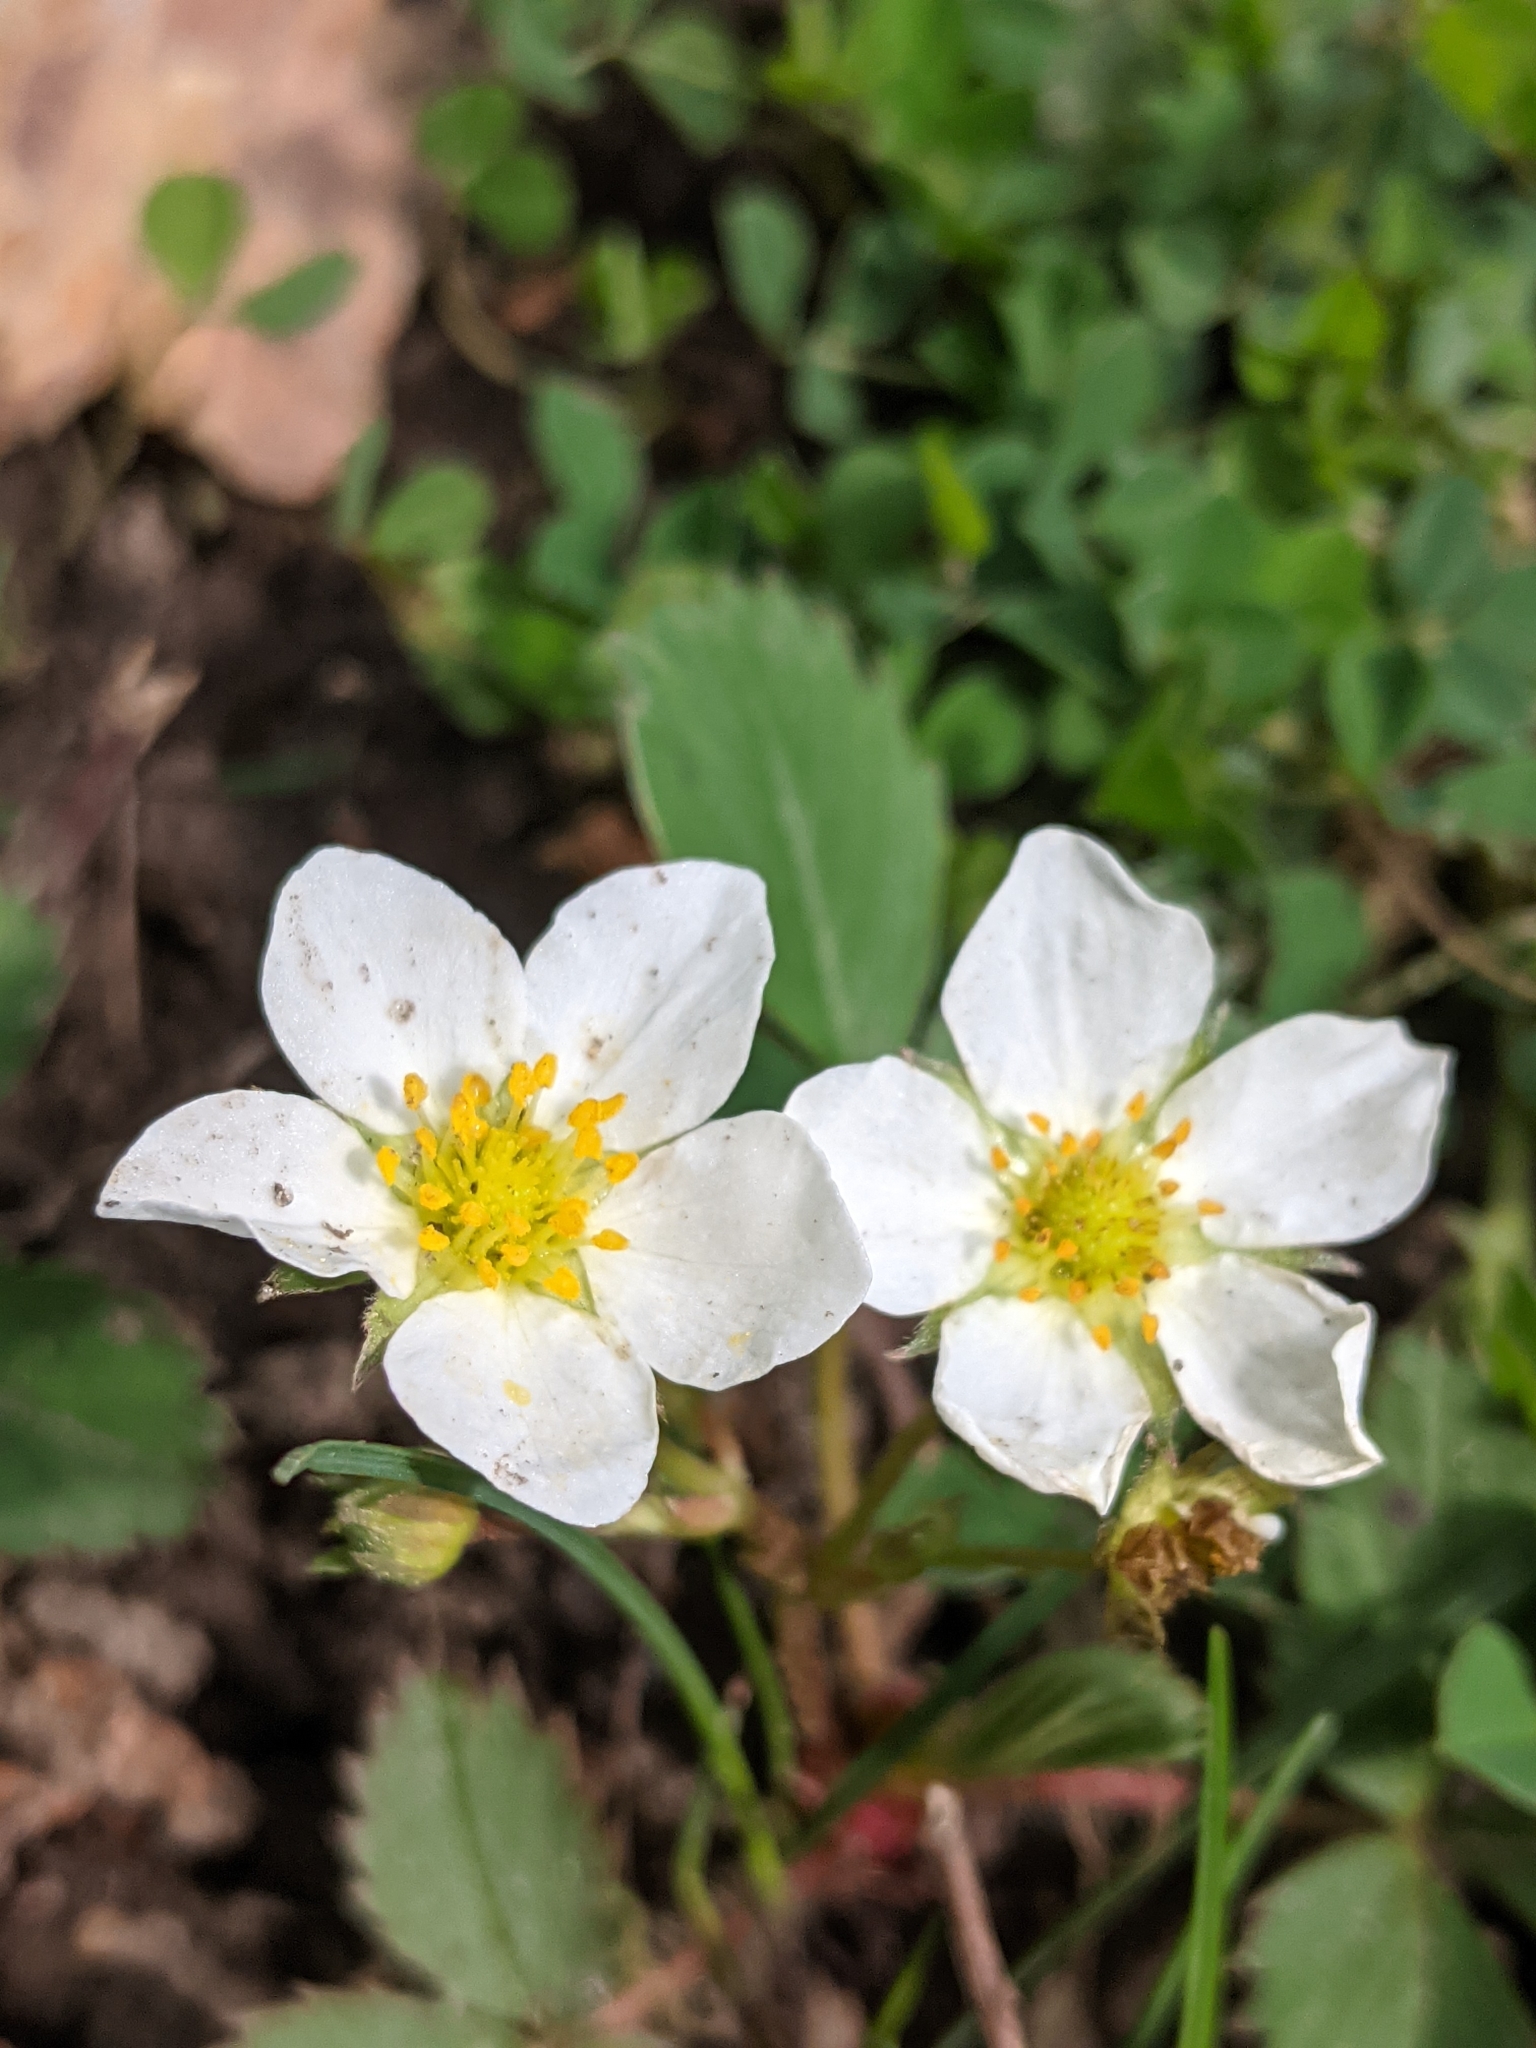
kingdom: Plantae
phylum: Tracheophyta
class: Magnoliopsida
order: Rosales
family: Rosaceae
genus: Fragaria
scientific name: Fragaria virginiana
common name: Thickleaved wild strawberry
